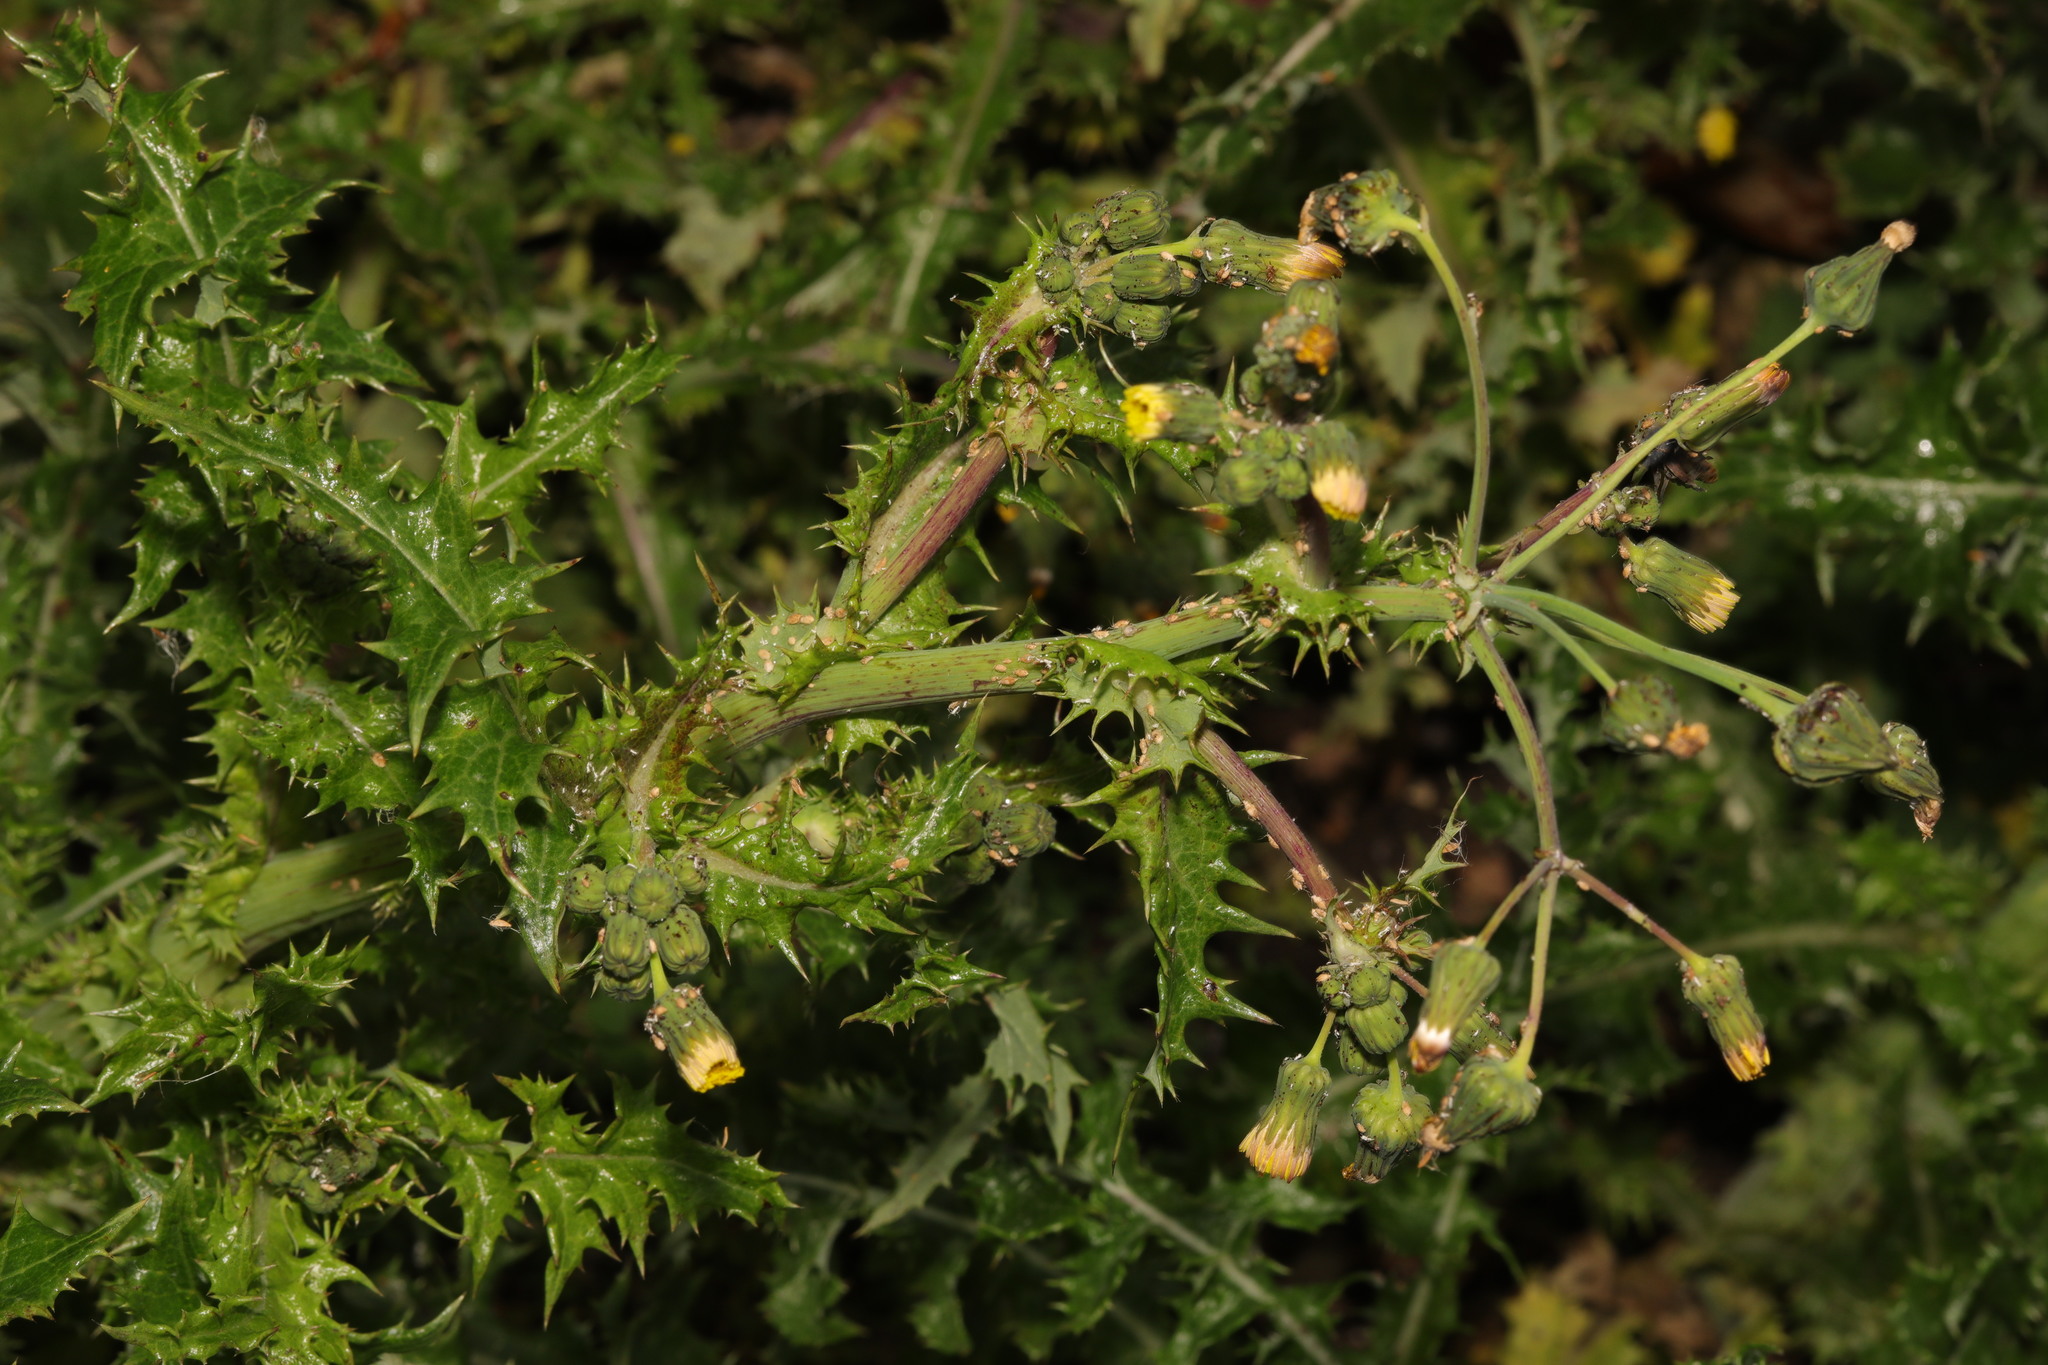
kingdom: Plantae
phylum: Tracheophyta
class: Magnoliopsida
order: Asterales
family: Asteraceae
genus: Sonchus
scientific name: Sonchus asper
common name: Prickly sow-thistle
